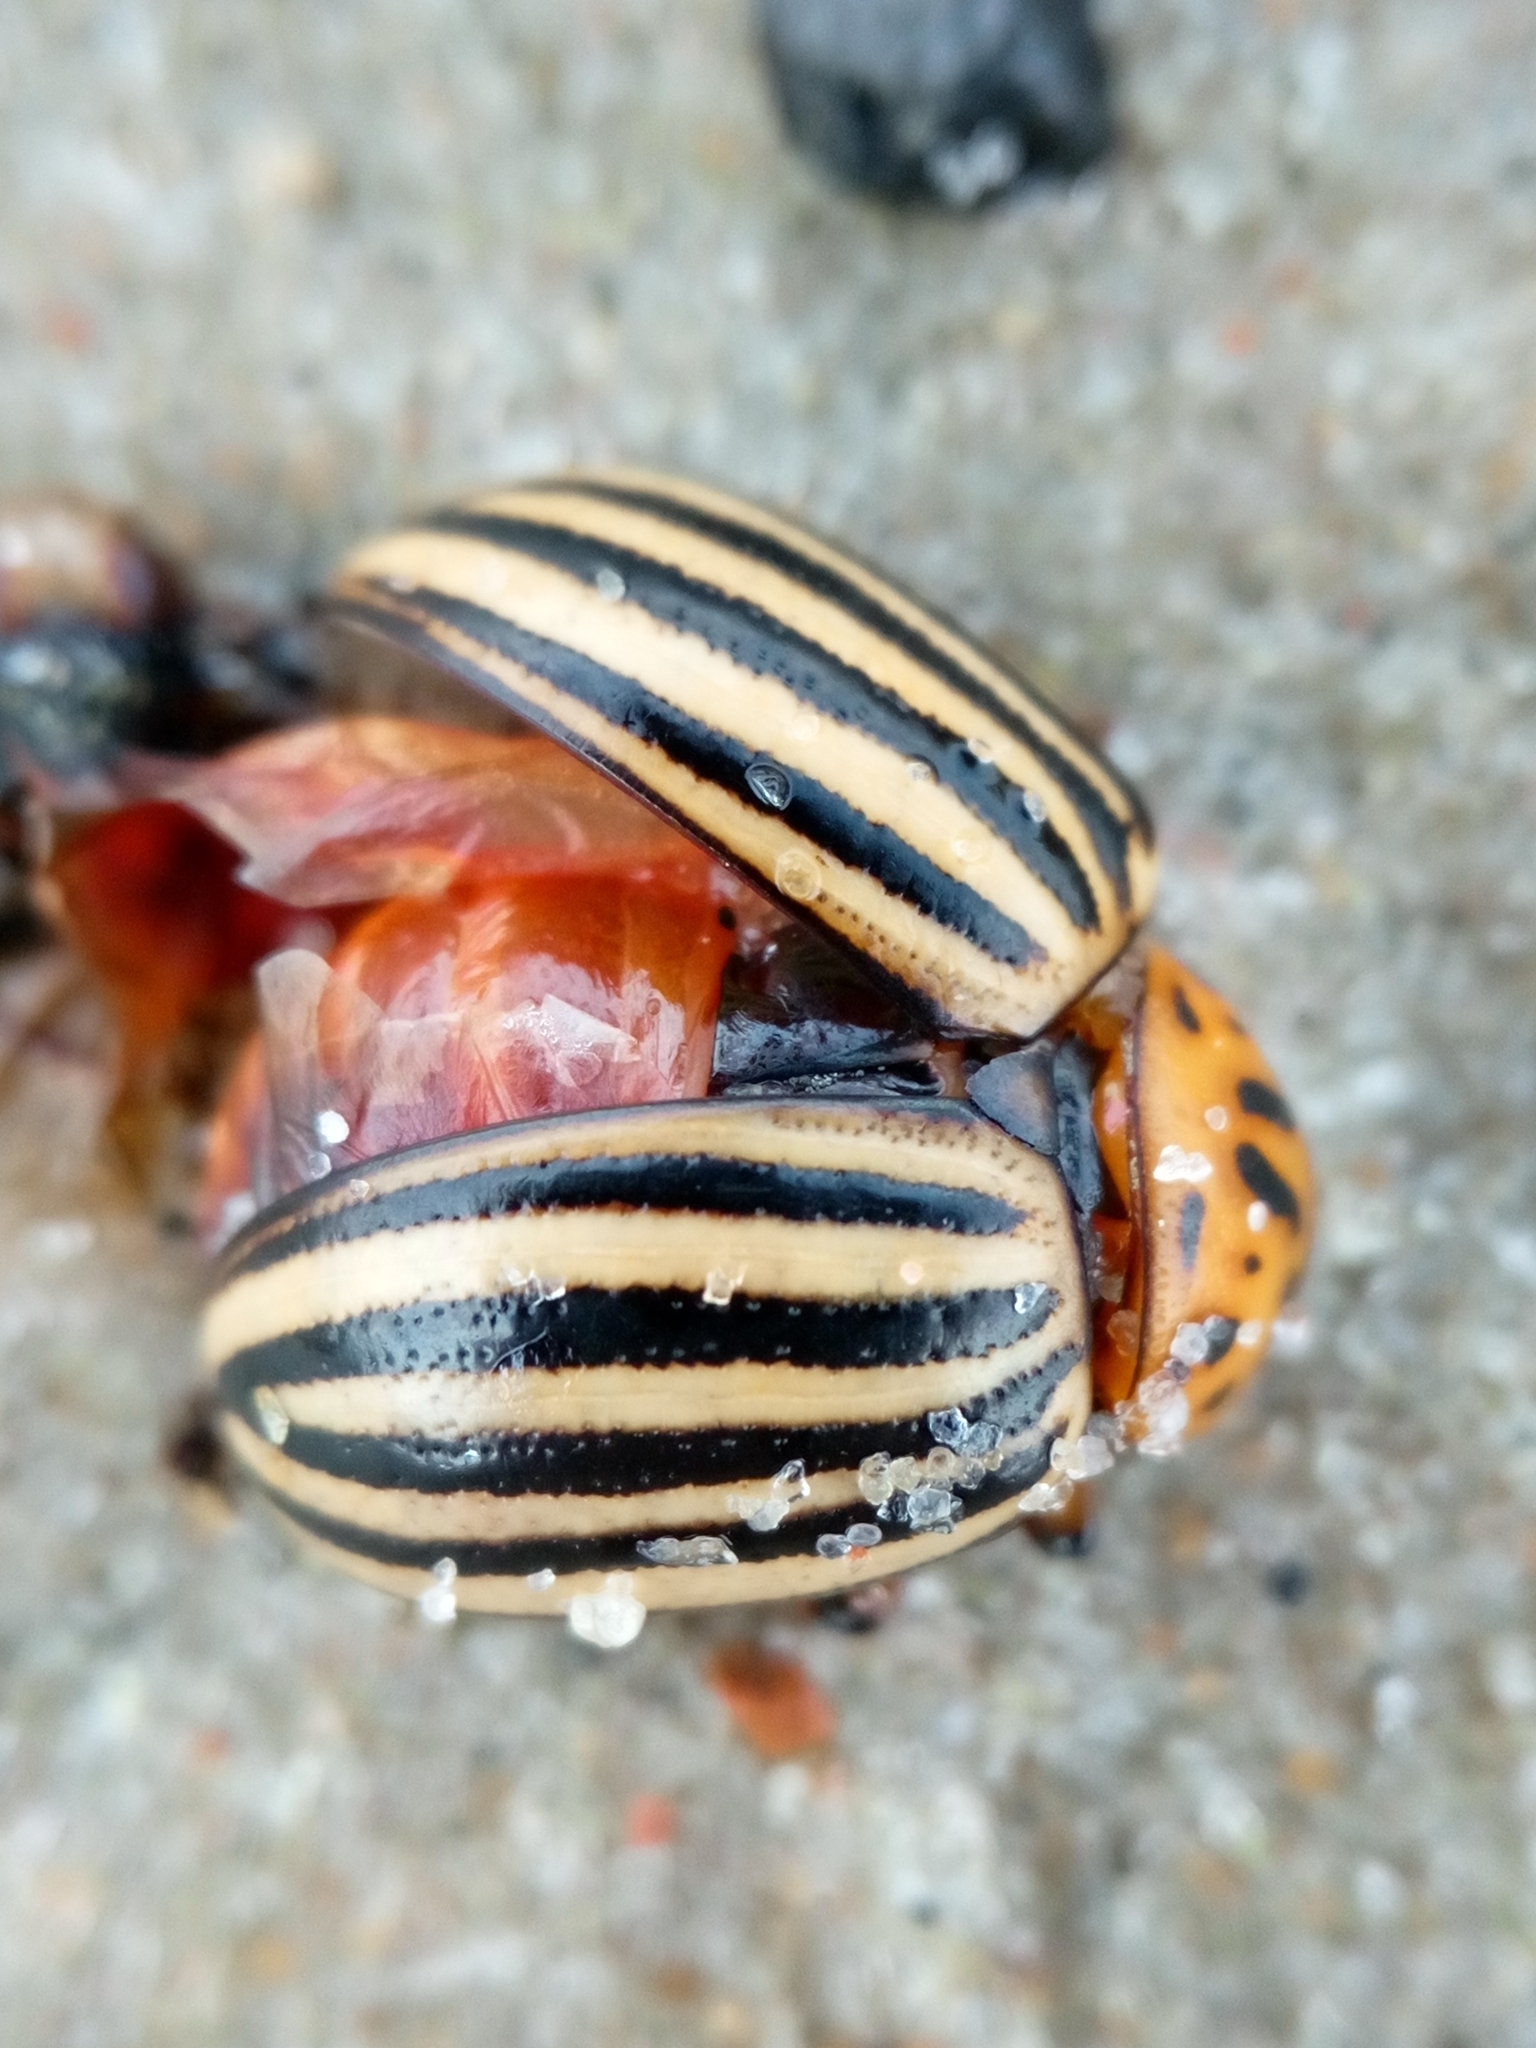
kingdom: Animalia
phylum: Arthropoda
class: Insecta
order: Coleoptera
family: Chrysomelidae
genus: Leptinotarsa
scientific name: Leptinotarsa decemlineata
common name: Colorado potato beetle
